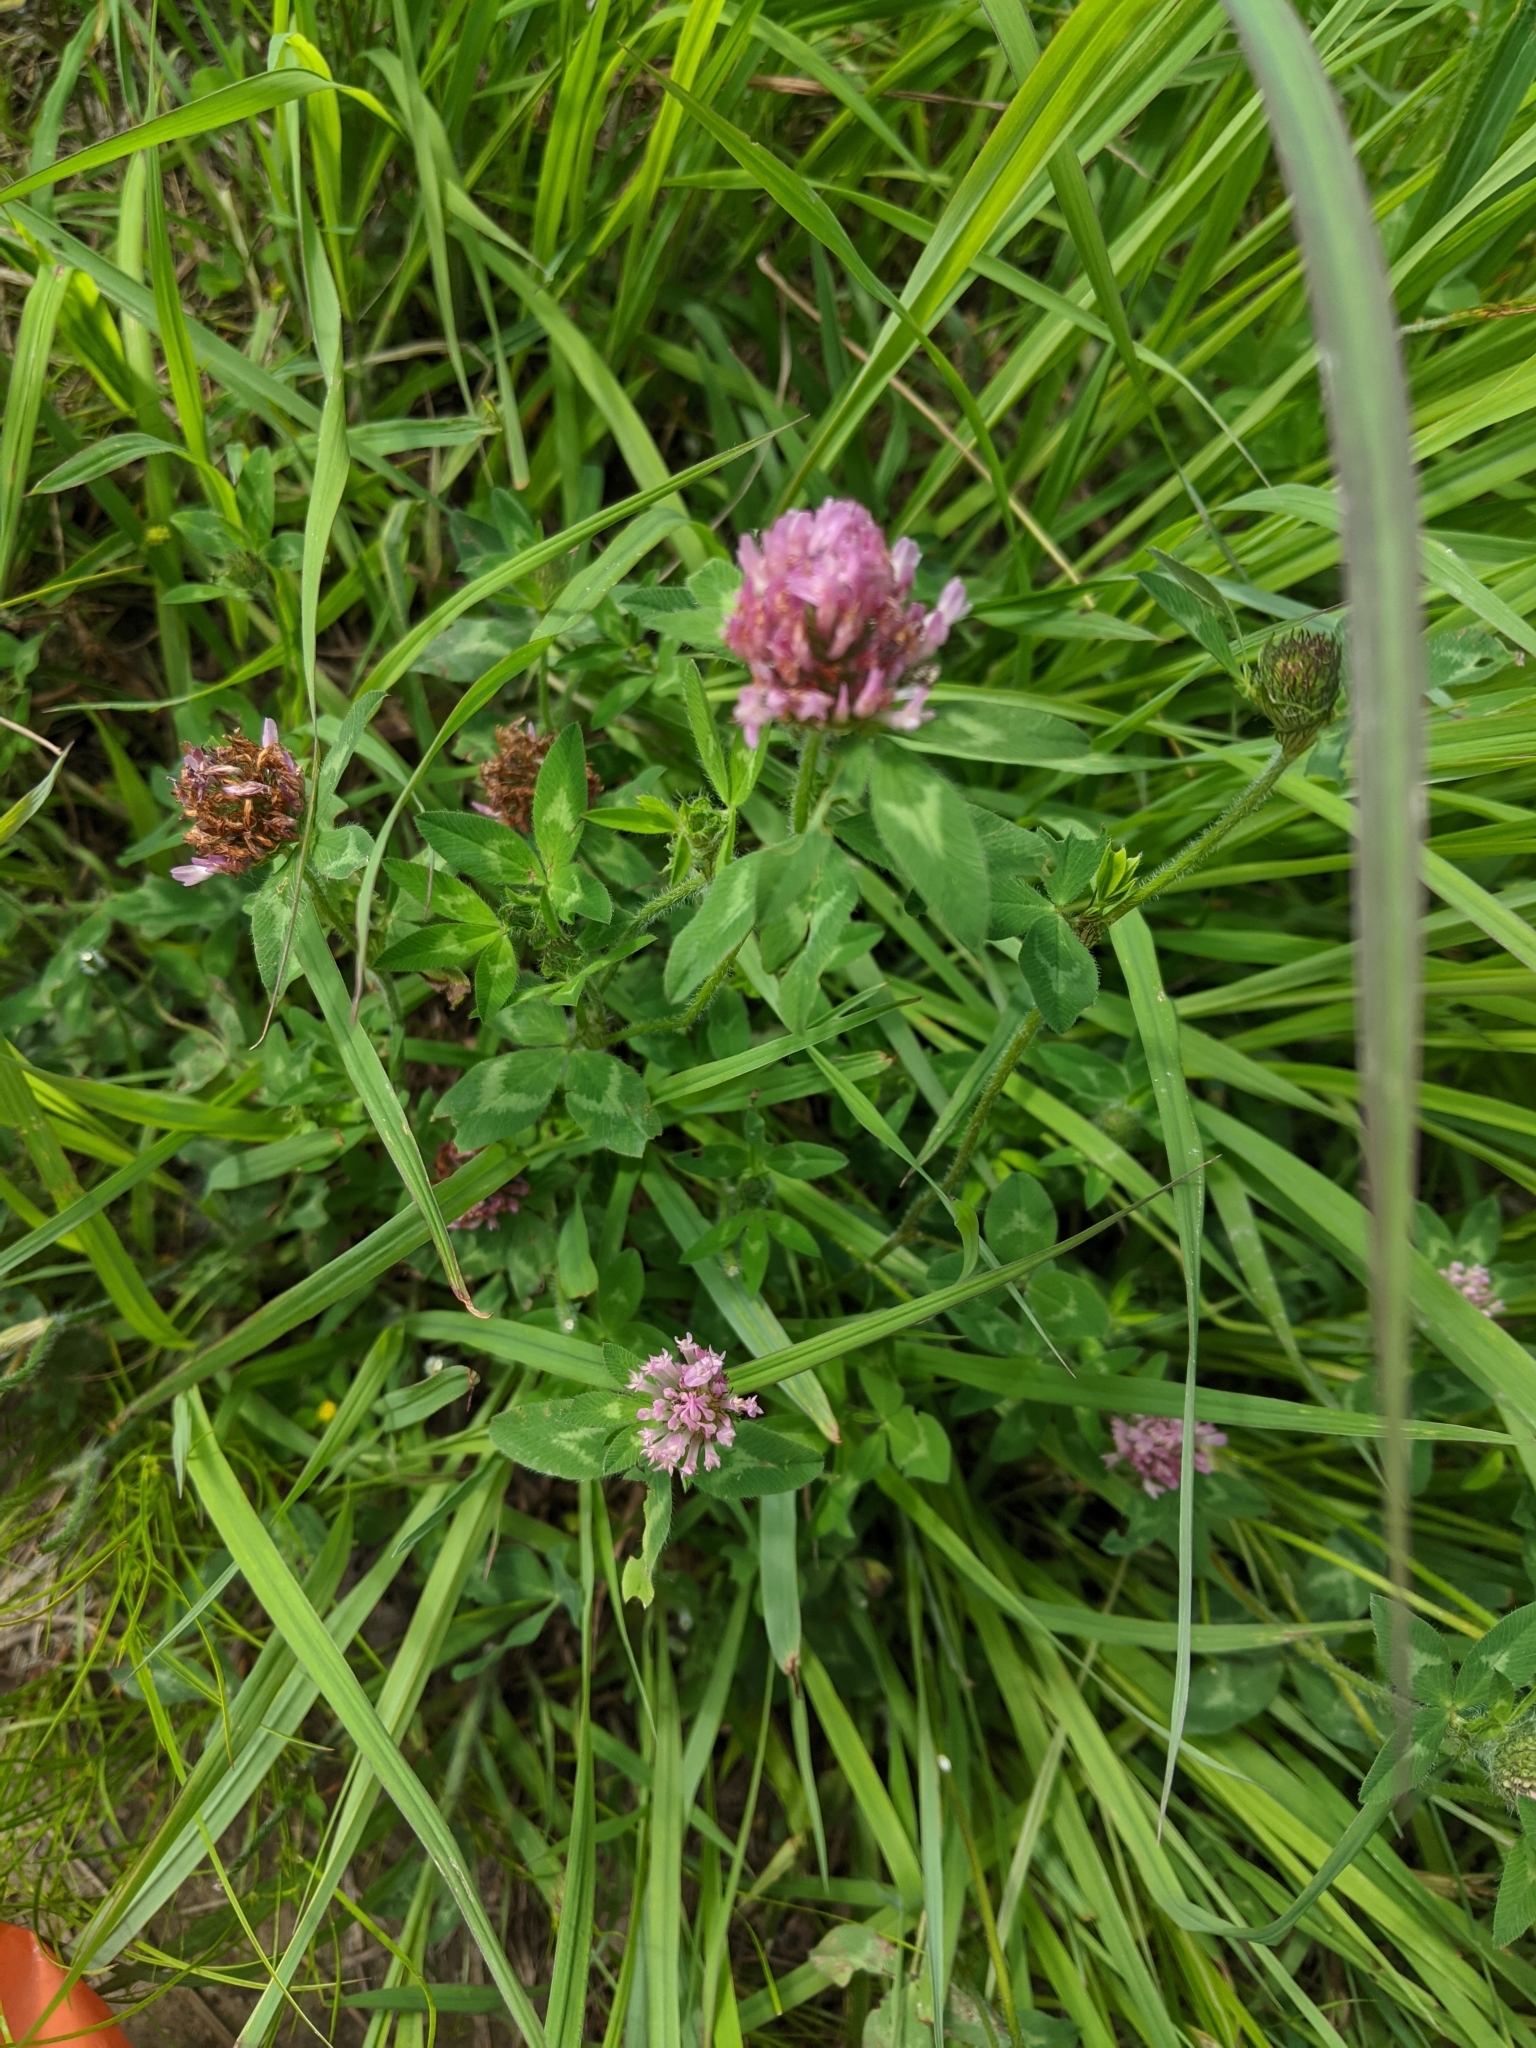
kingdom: Plantae
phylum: Tracheophyta
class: Magnoliopsida
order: Fabales
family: Fabaceae
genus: Trifolium
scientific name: Trifolium pratense
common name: Red clover
